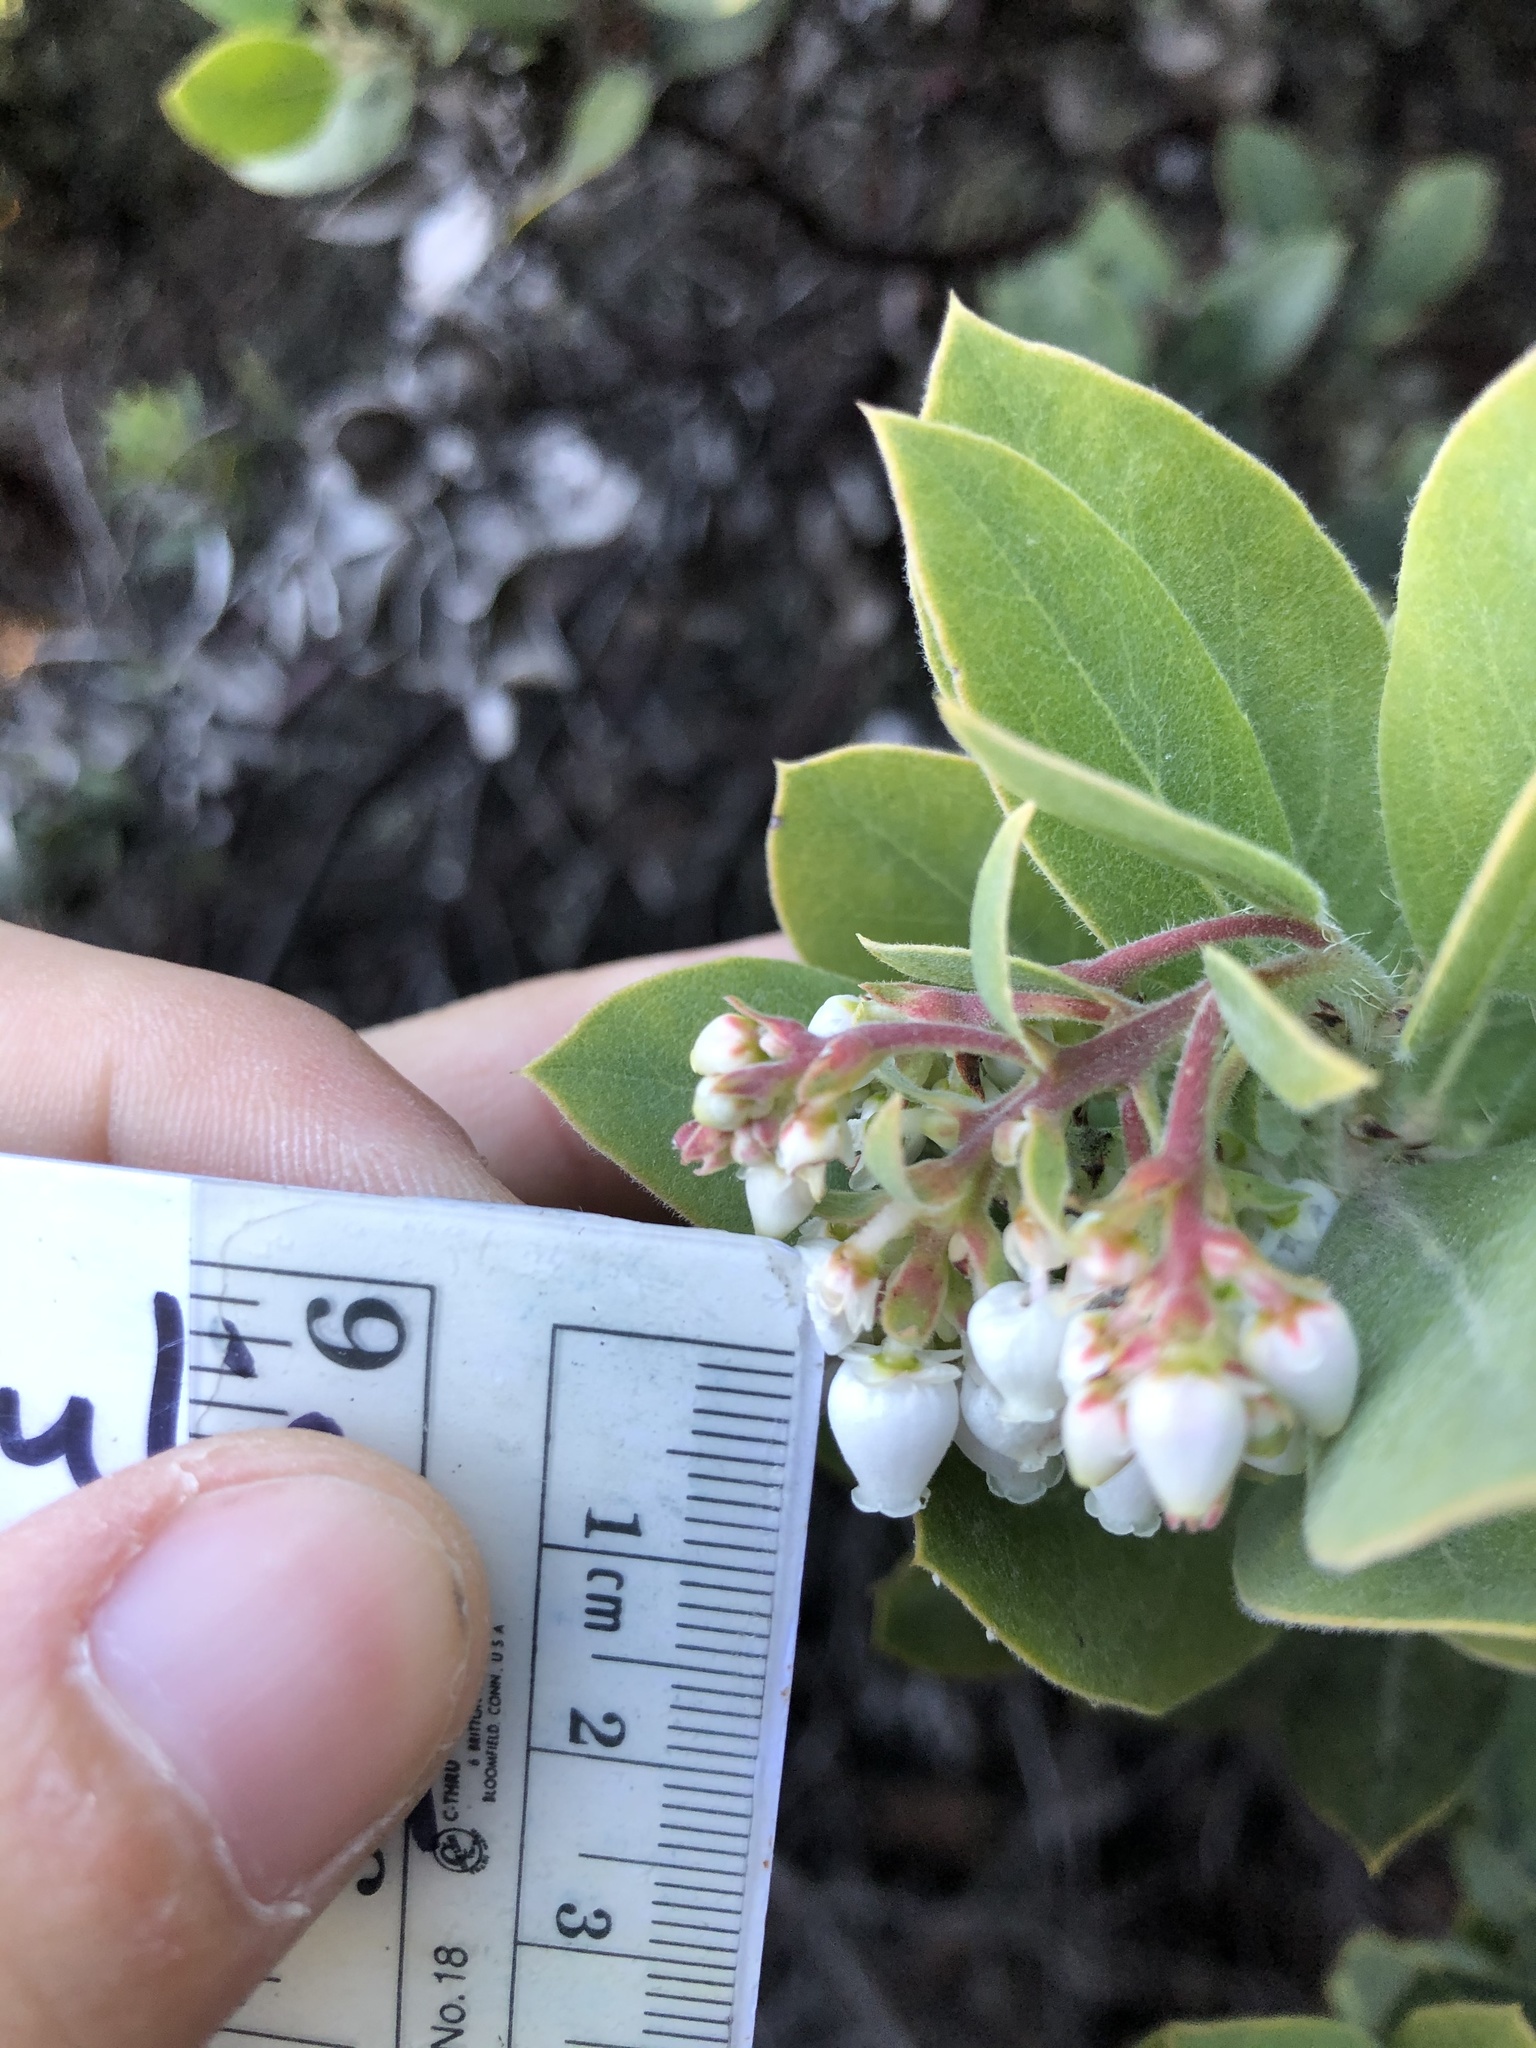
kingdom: Plantae
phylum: Tracheophyta
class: Magnoliopsida
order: Ericales
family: Ericaceae
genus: Arctostaphylos
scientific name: Arctostaphylos crustacea
